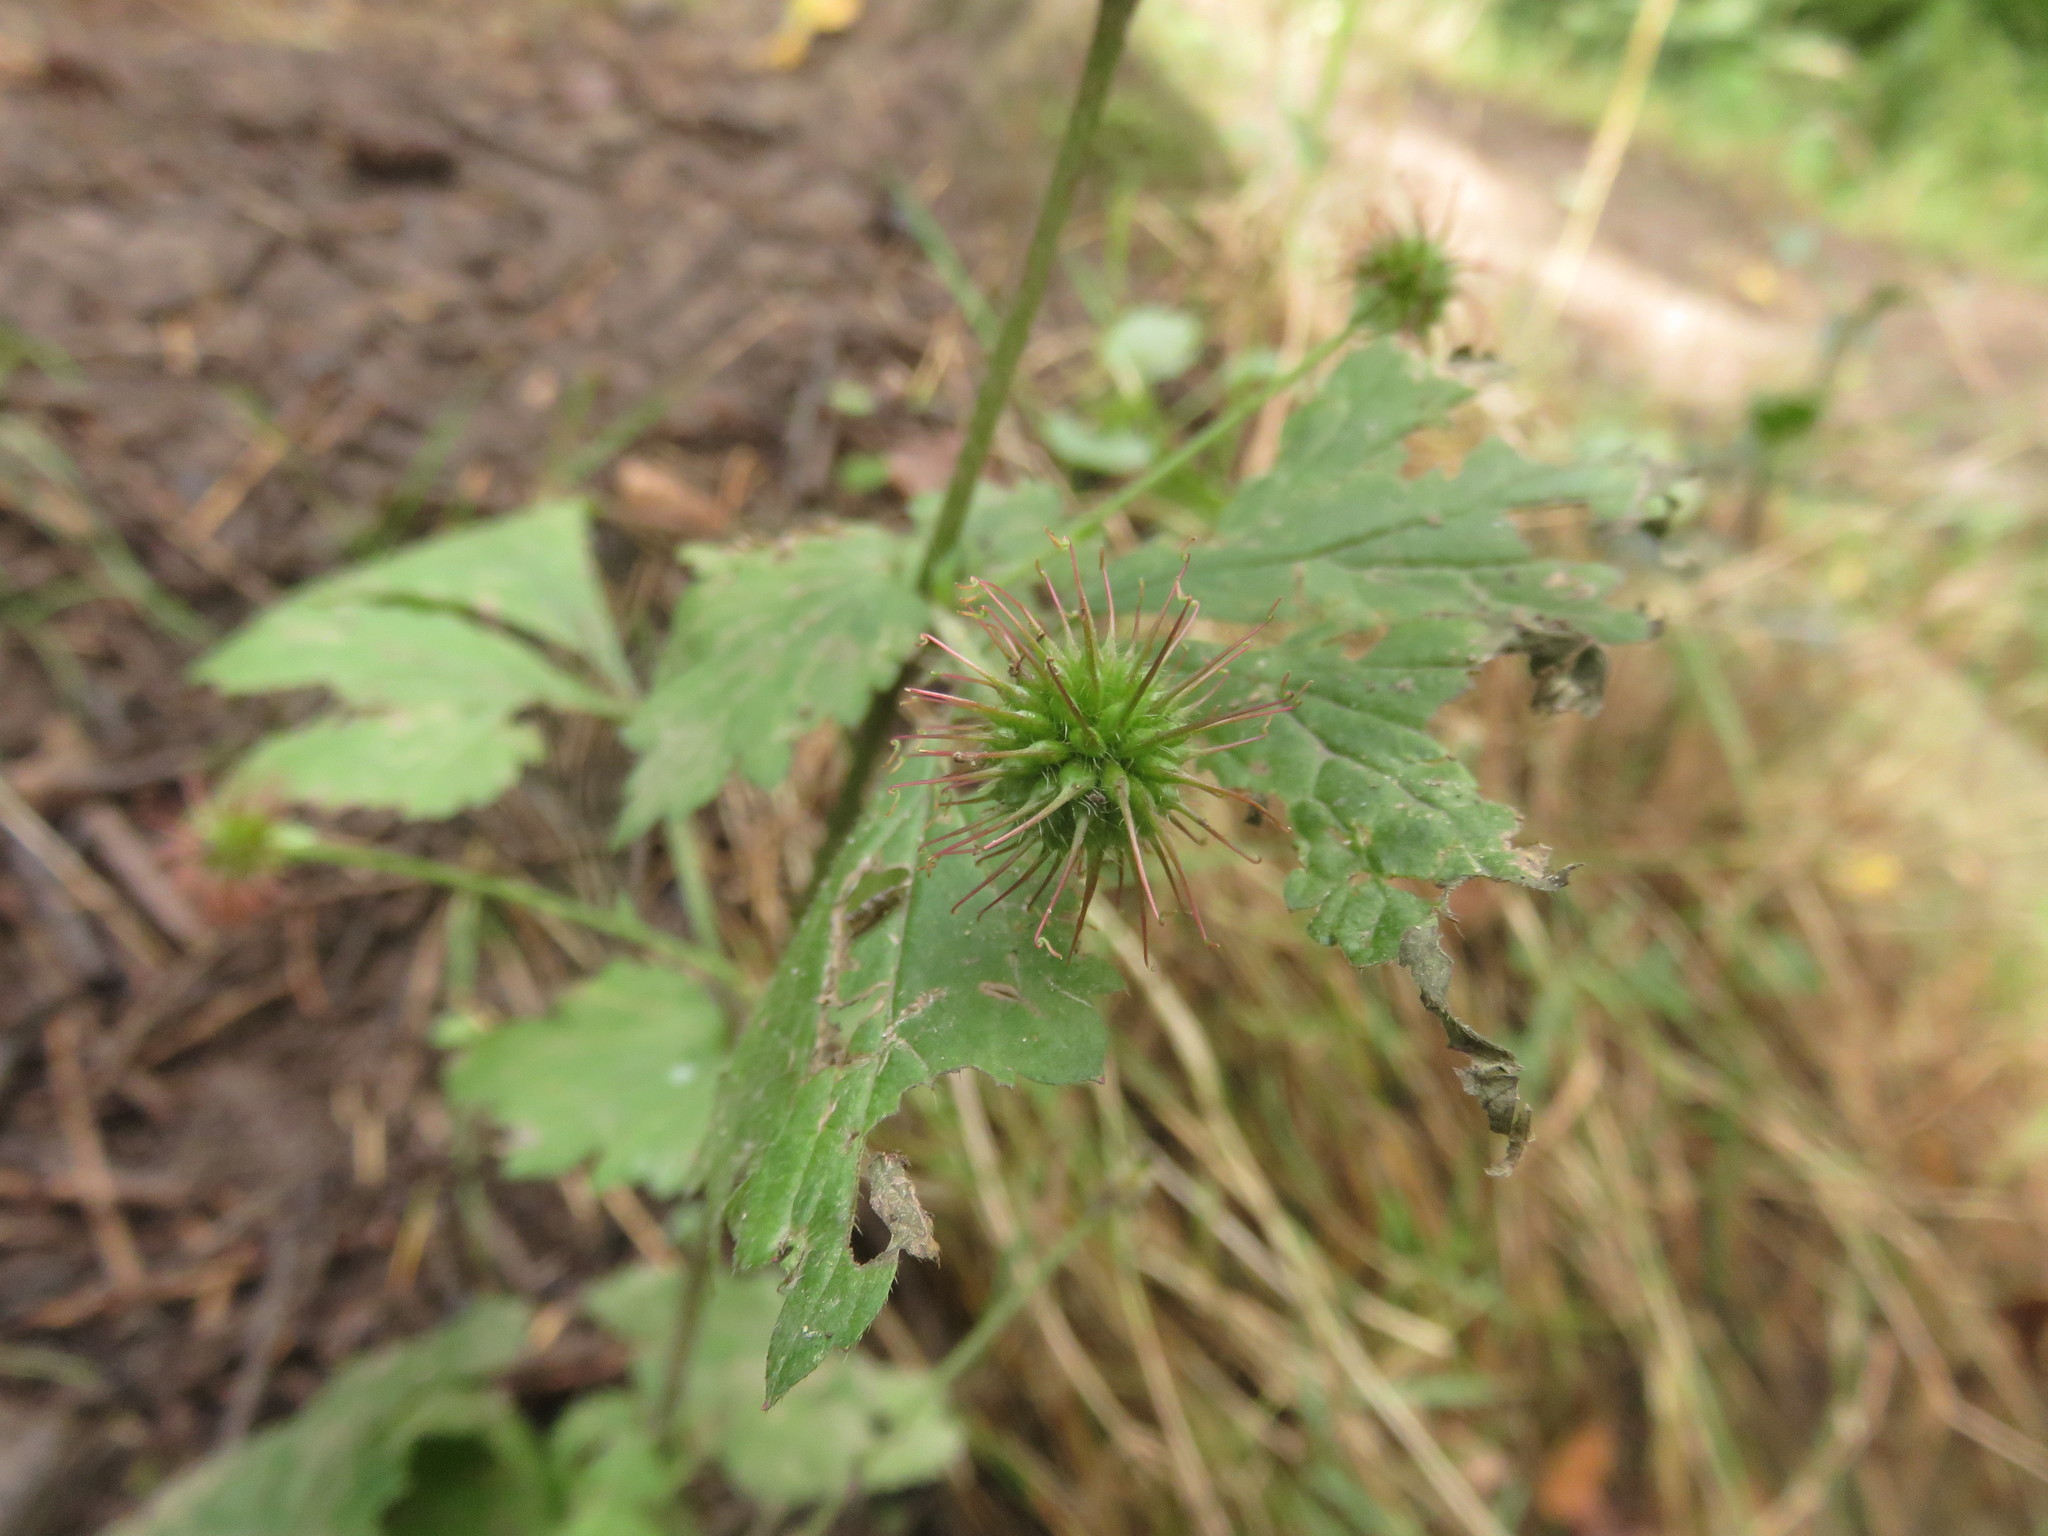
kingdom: Plantae
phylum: Tracheophyta
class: Magnoliopsida
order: Rosales
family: Rosaceae
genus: Geum
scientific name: Geum urbanum
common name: Wood avens
